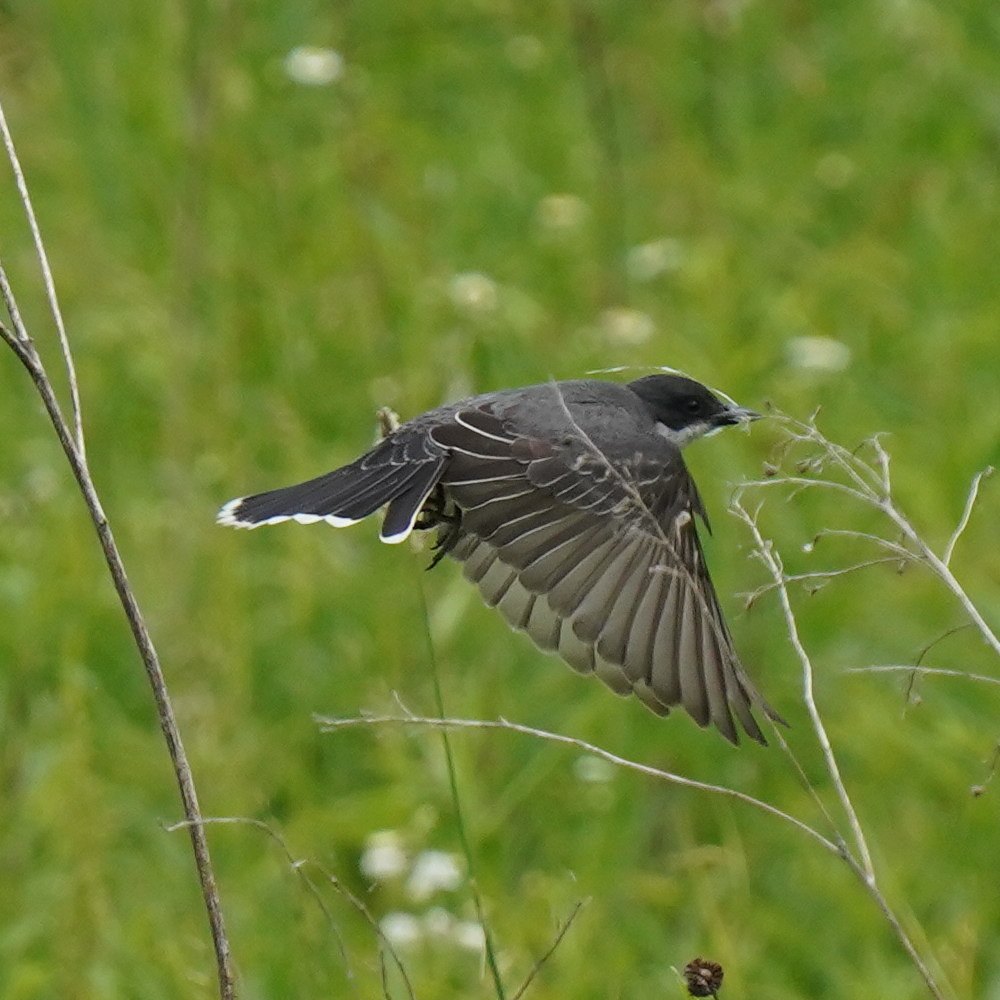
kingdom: Animalia
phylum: Chordata
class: Aves
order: Passeriformes
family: Tyrannidae
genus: Tyrannus
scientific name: Tyrannus tyrannus
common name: Eastern kingbird
